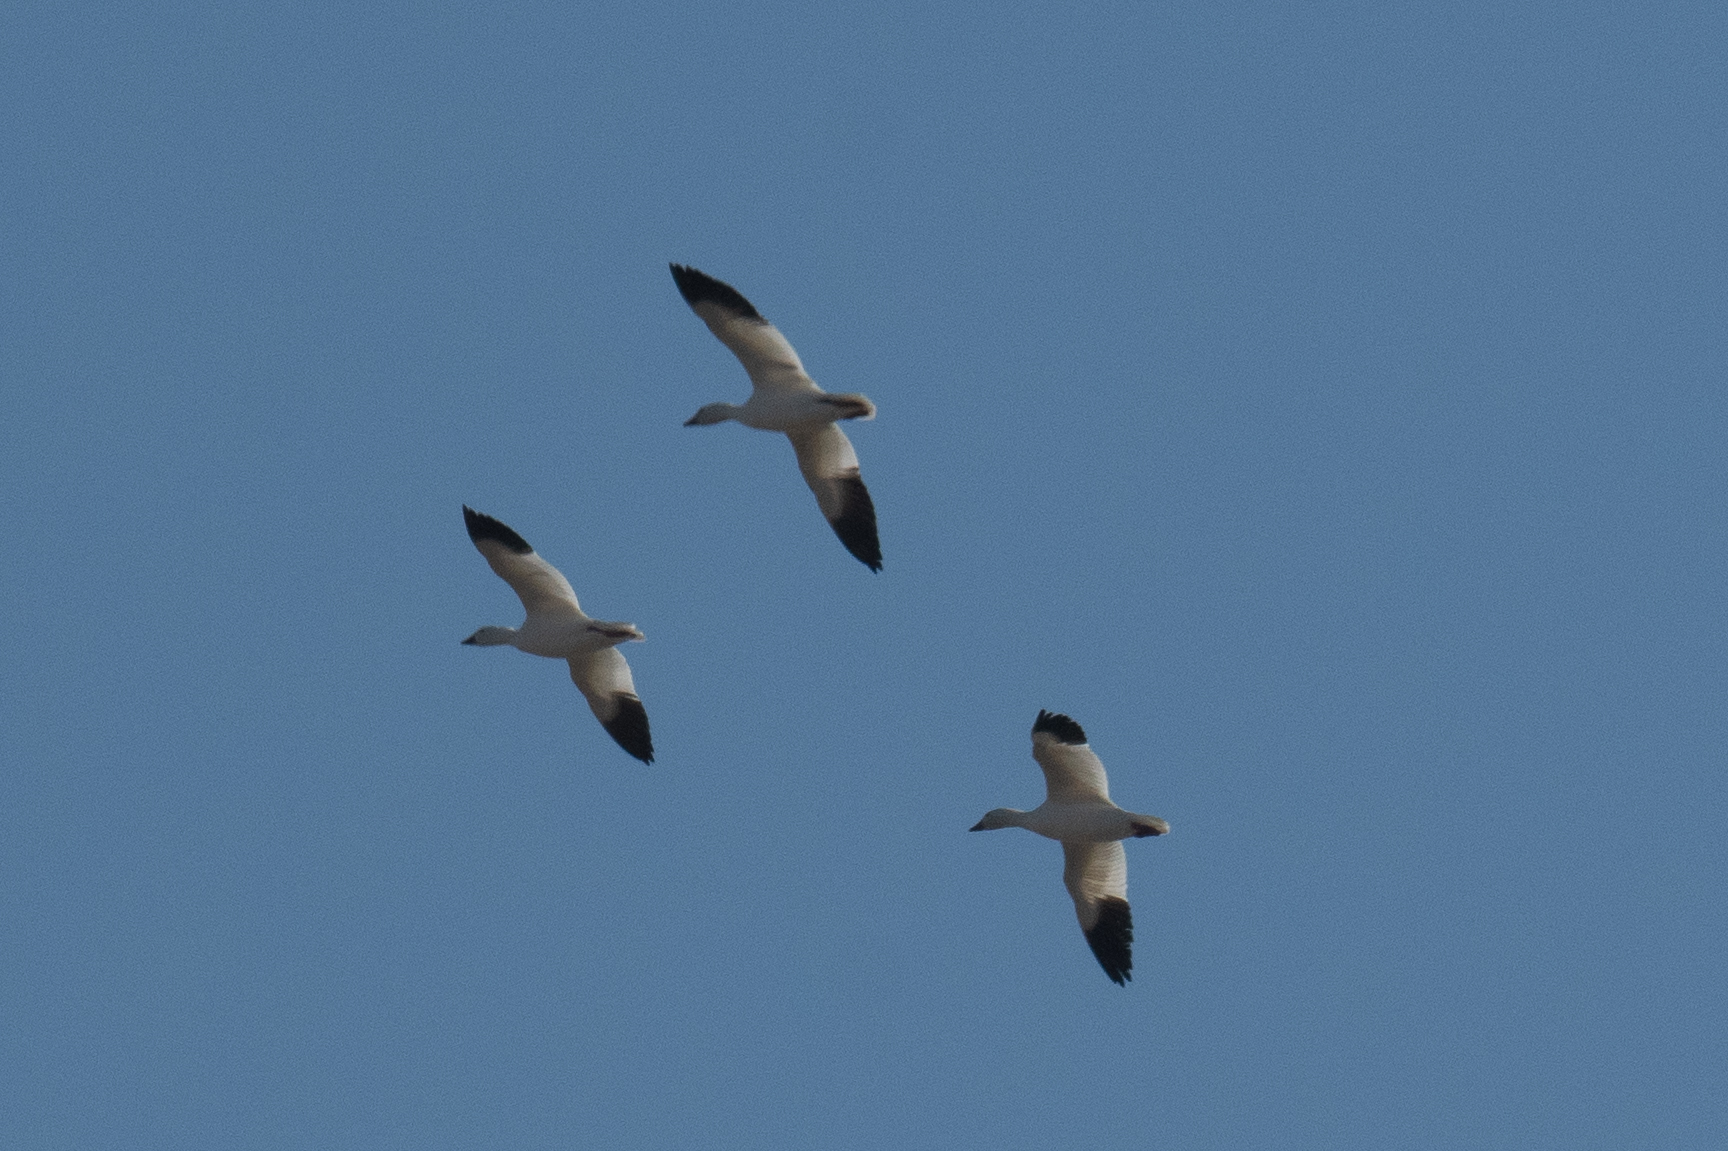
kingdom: Animalia
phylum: Chordata
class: Aves
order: Anseriformes
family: Anatidae
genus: Anser
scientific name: Anser caerulescens
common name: Snow goose
